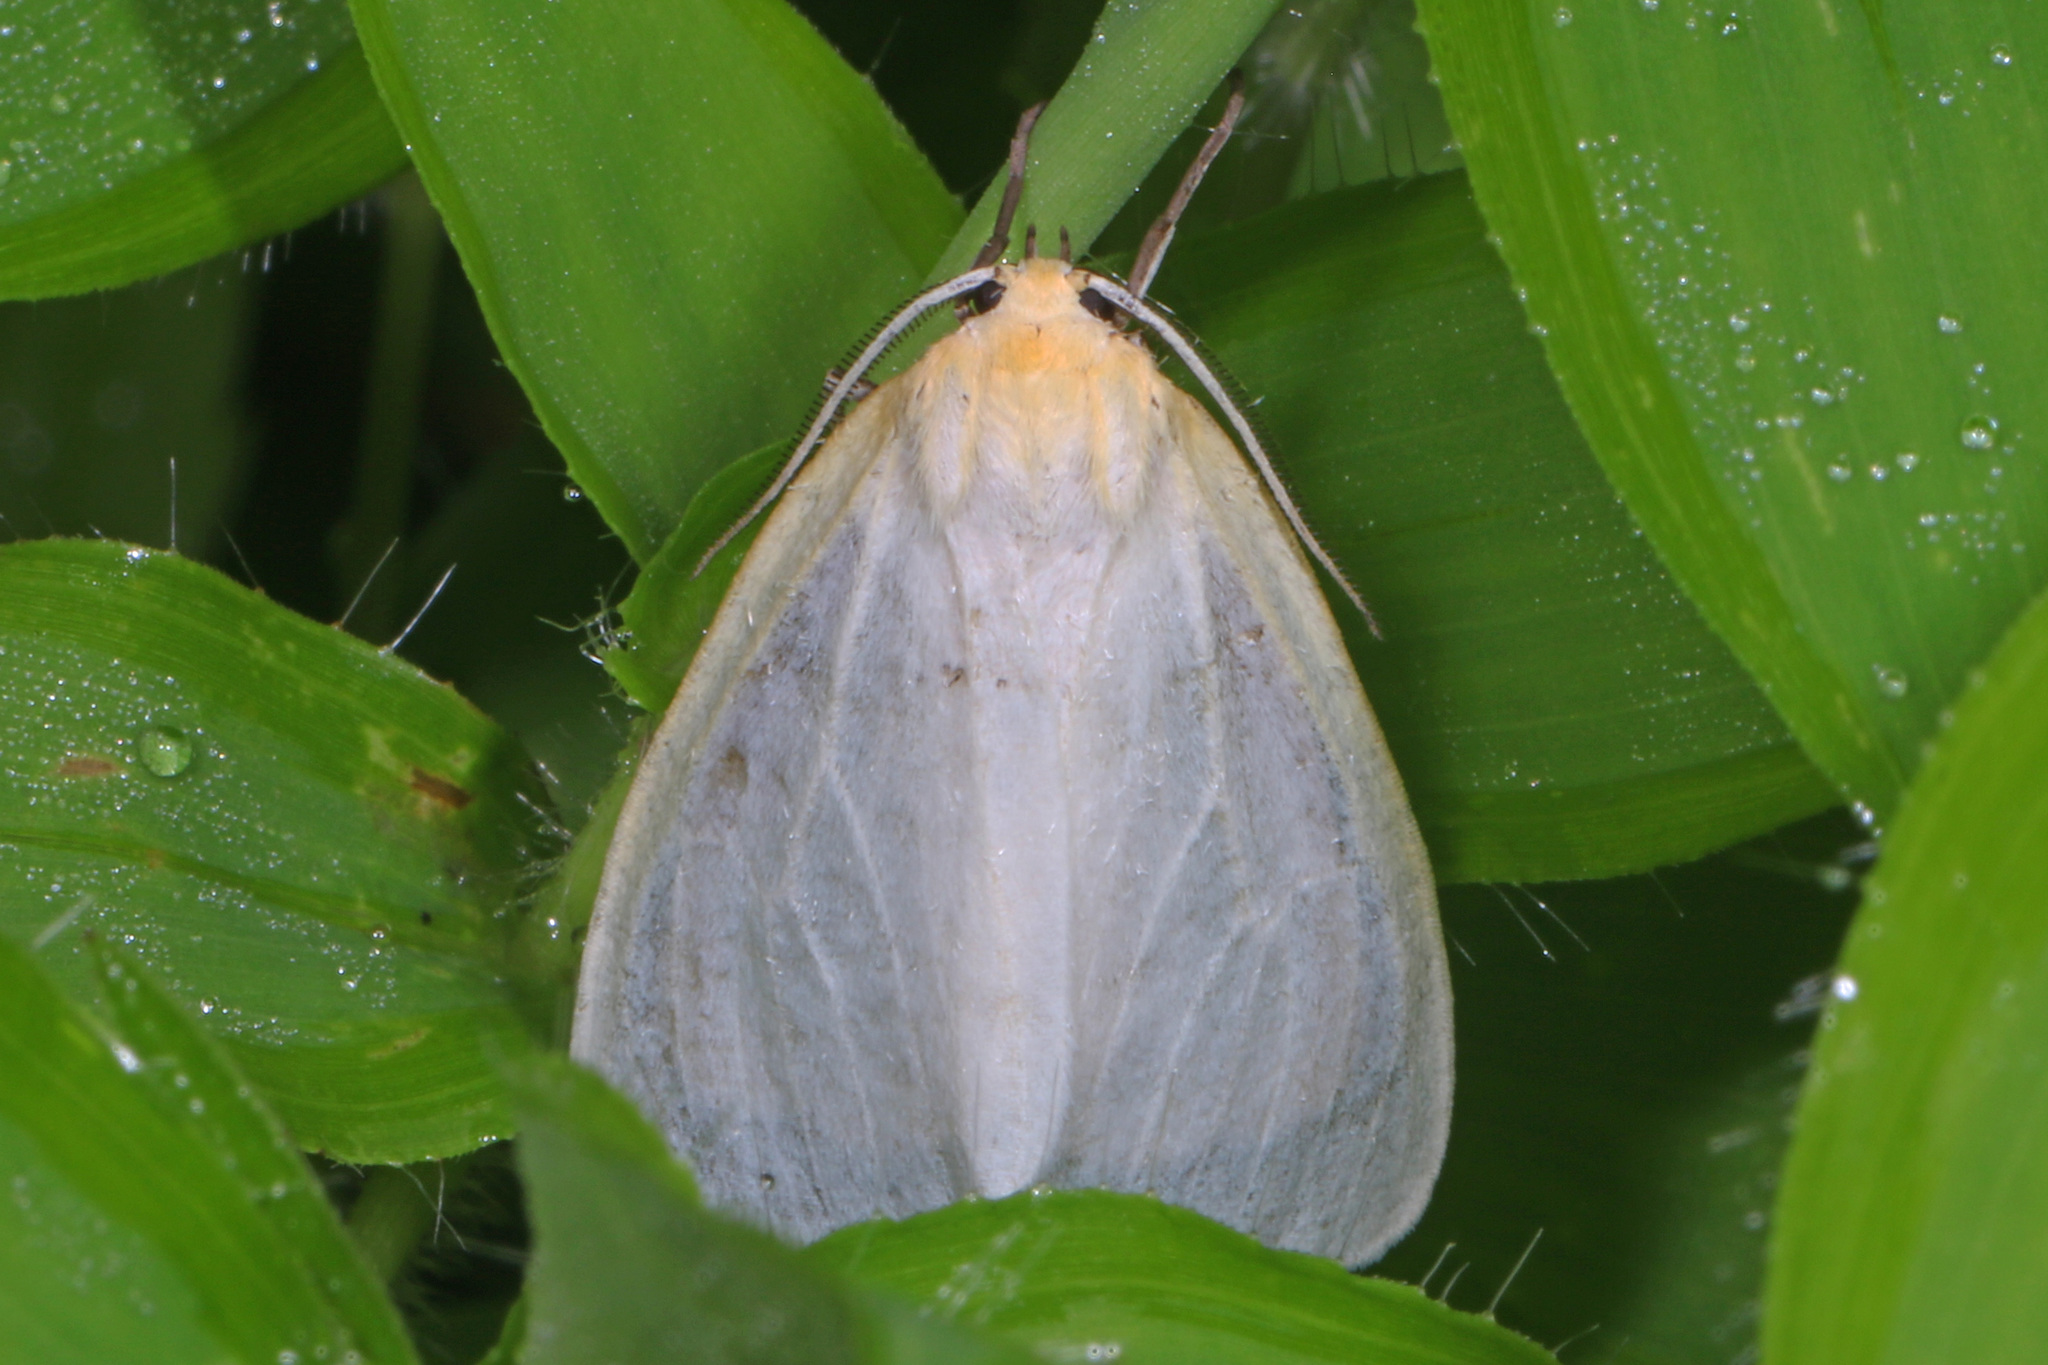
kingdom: Animalia
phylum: Arthropoda
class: Insecta
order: Lepidoptera
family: Erebidae
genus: Cycnia
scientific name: Cycnia tenera
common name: Delicate cycnia moth
